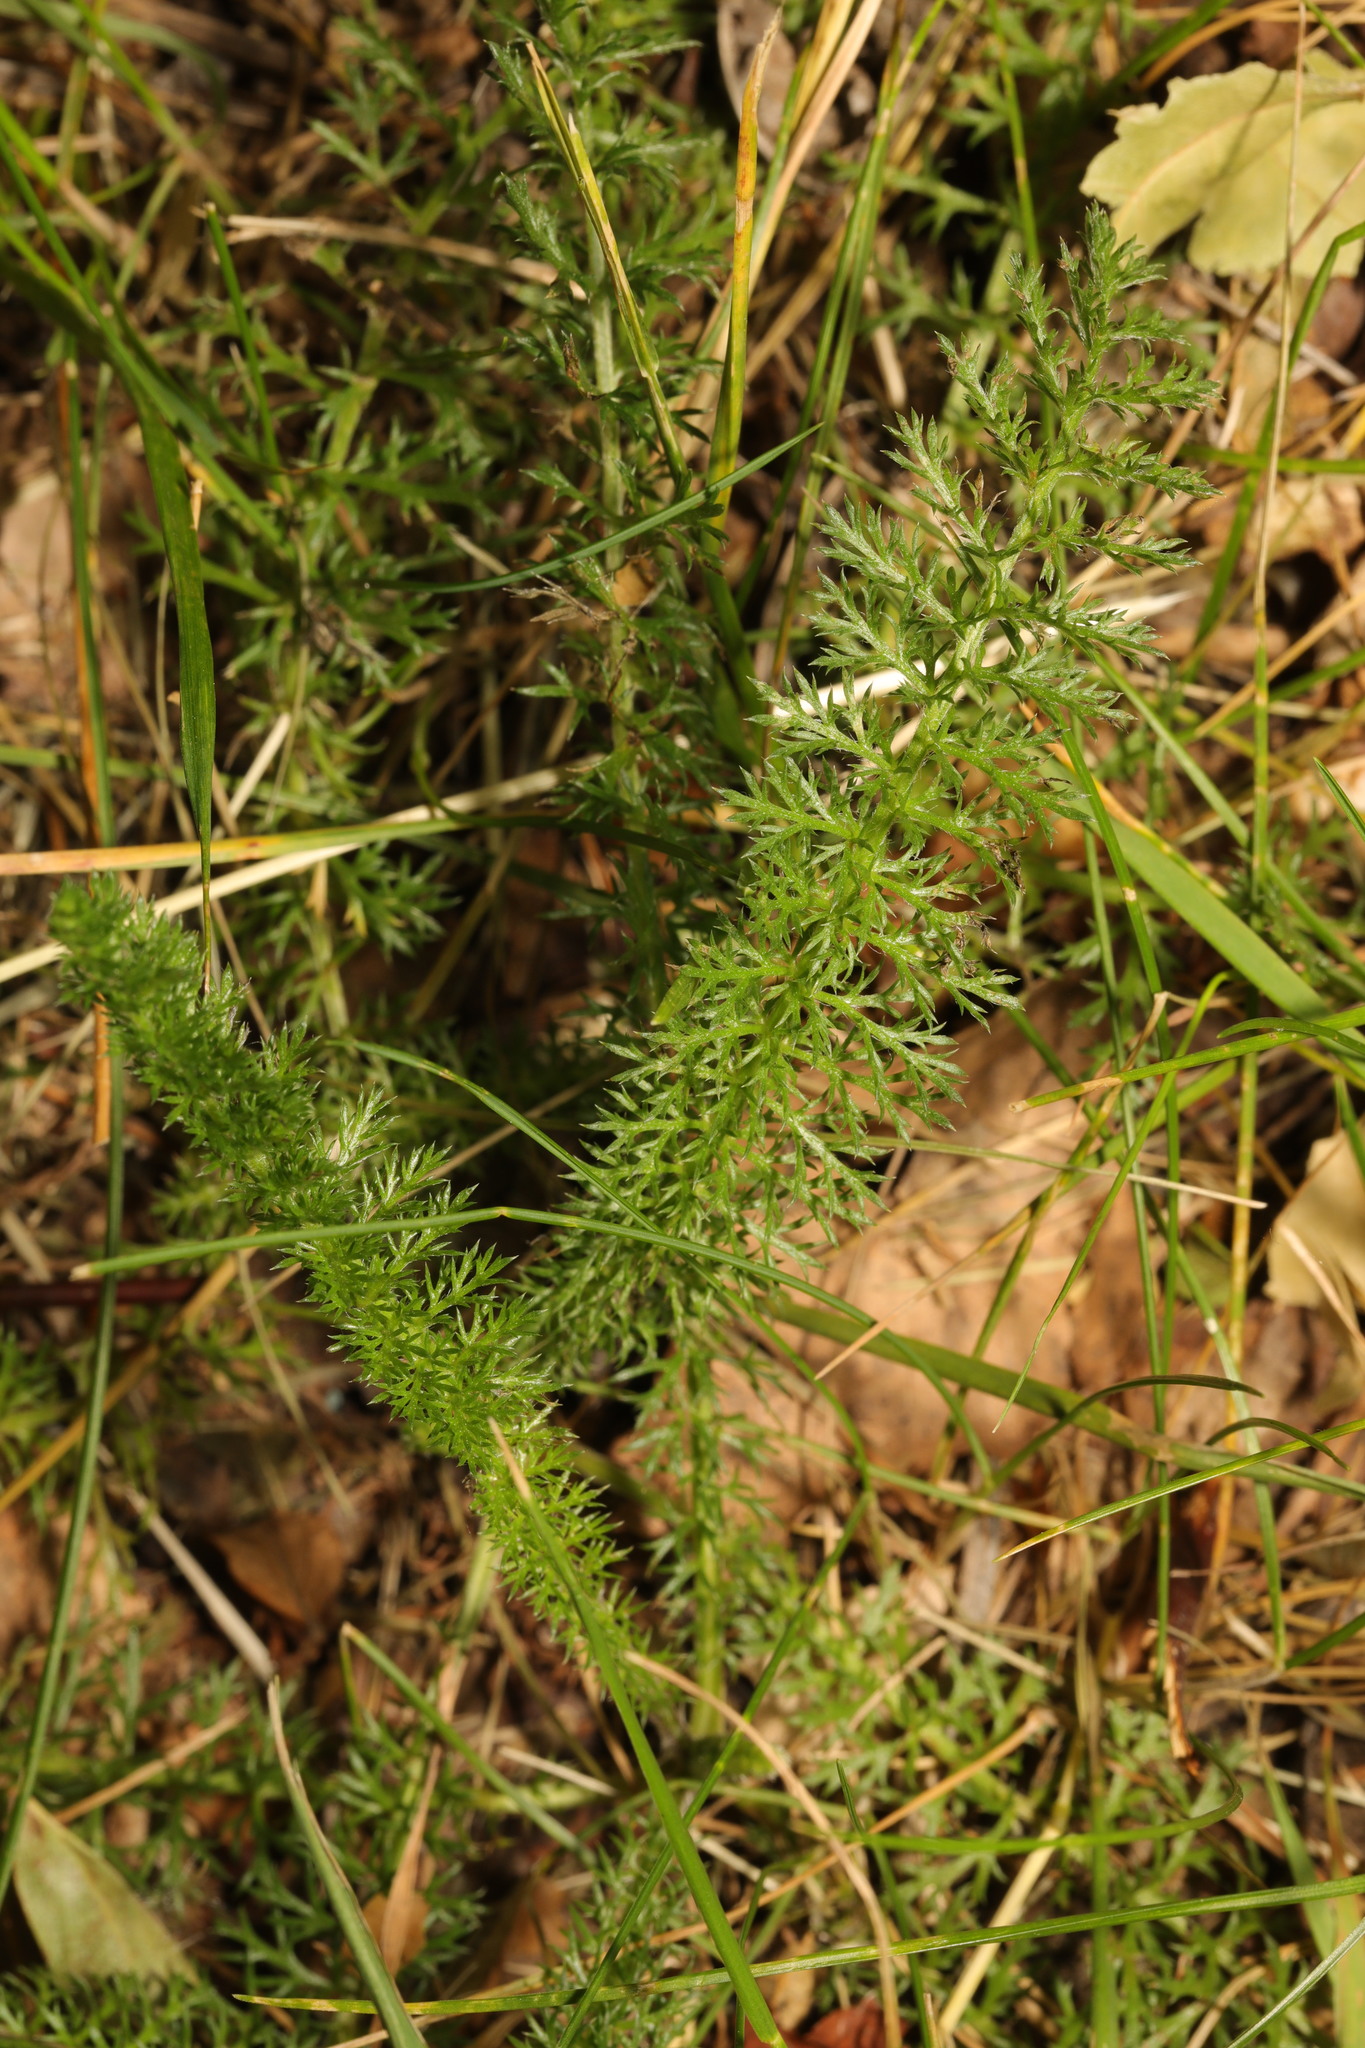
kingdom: Plantae
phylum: Tracheophyta
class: Magnoliopsida
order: Asterales
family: Asteraceae
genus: Achillea
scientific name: Achillea millefolium
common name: Yarrow
